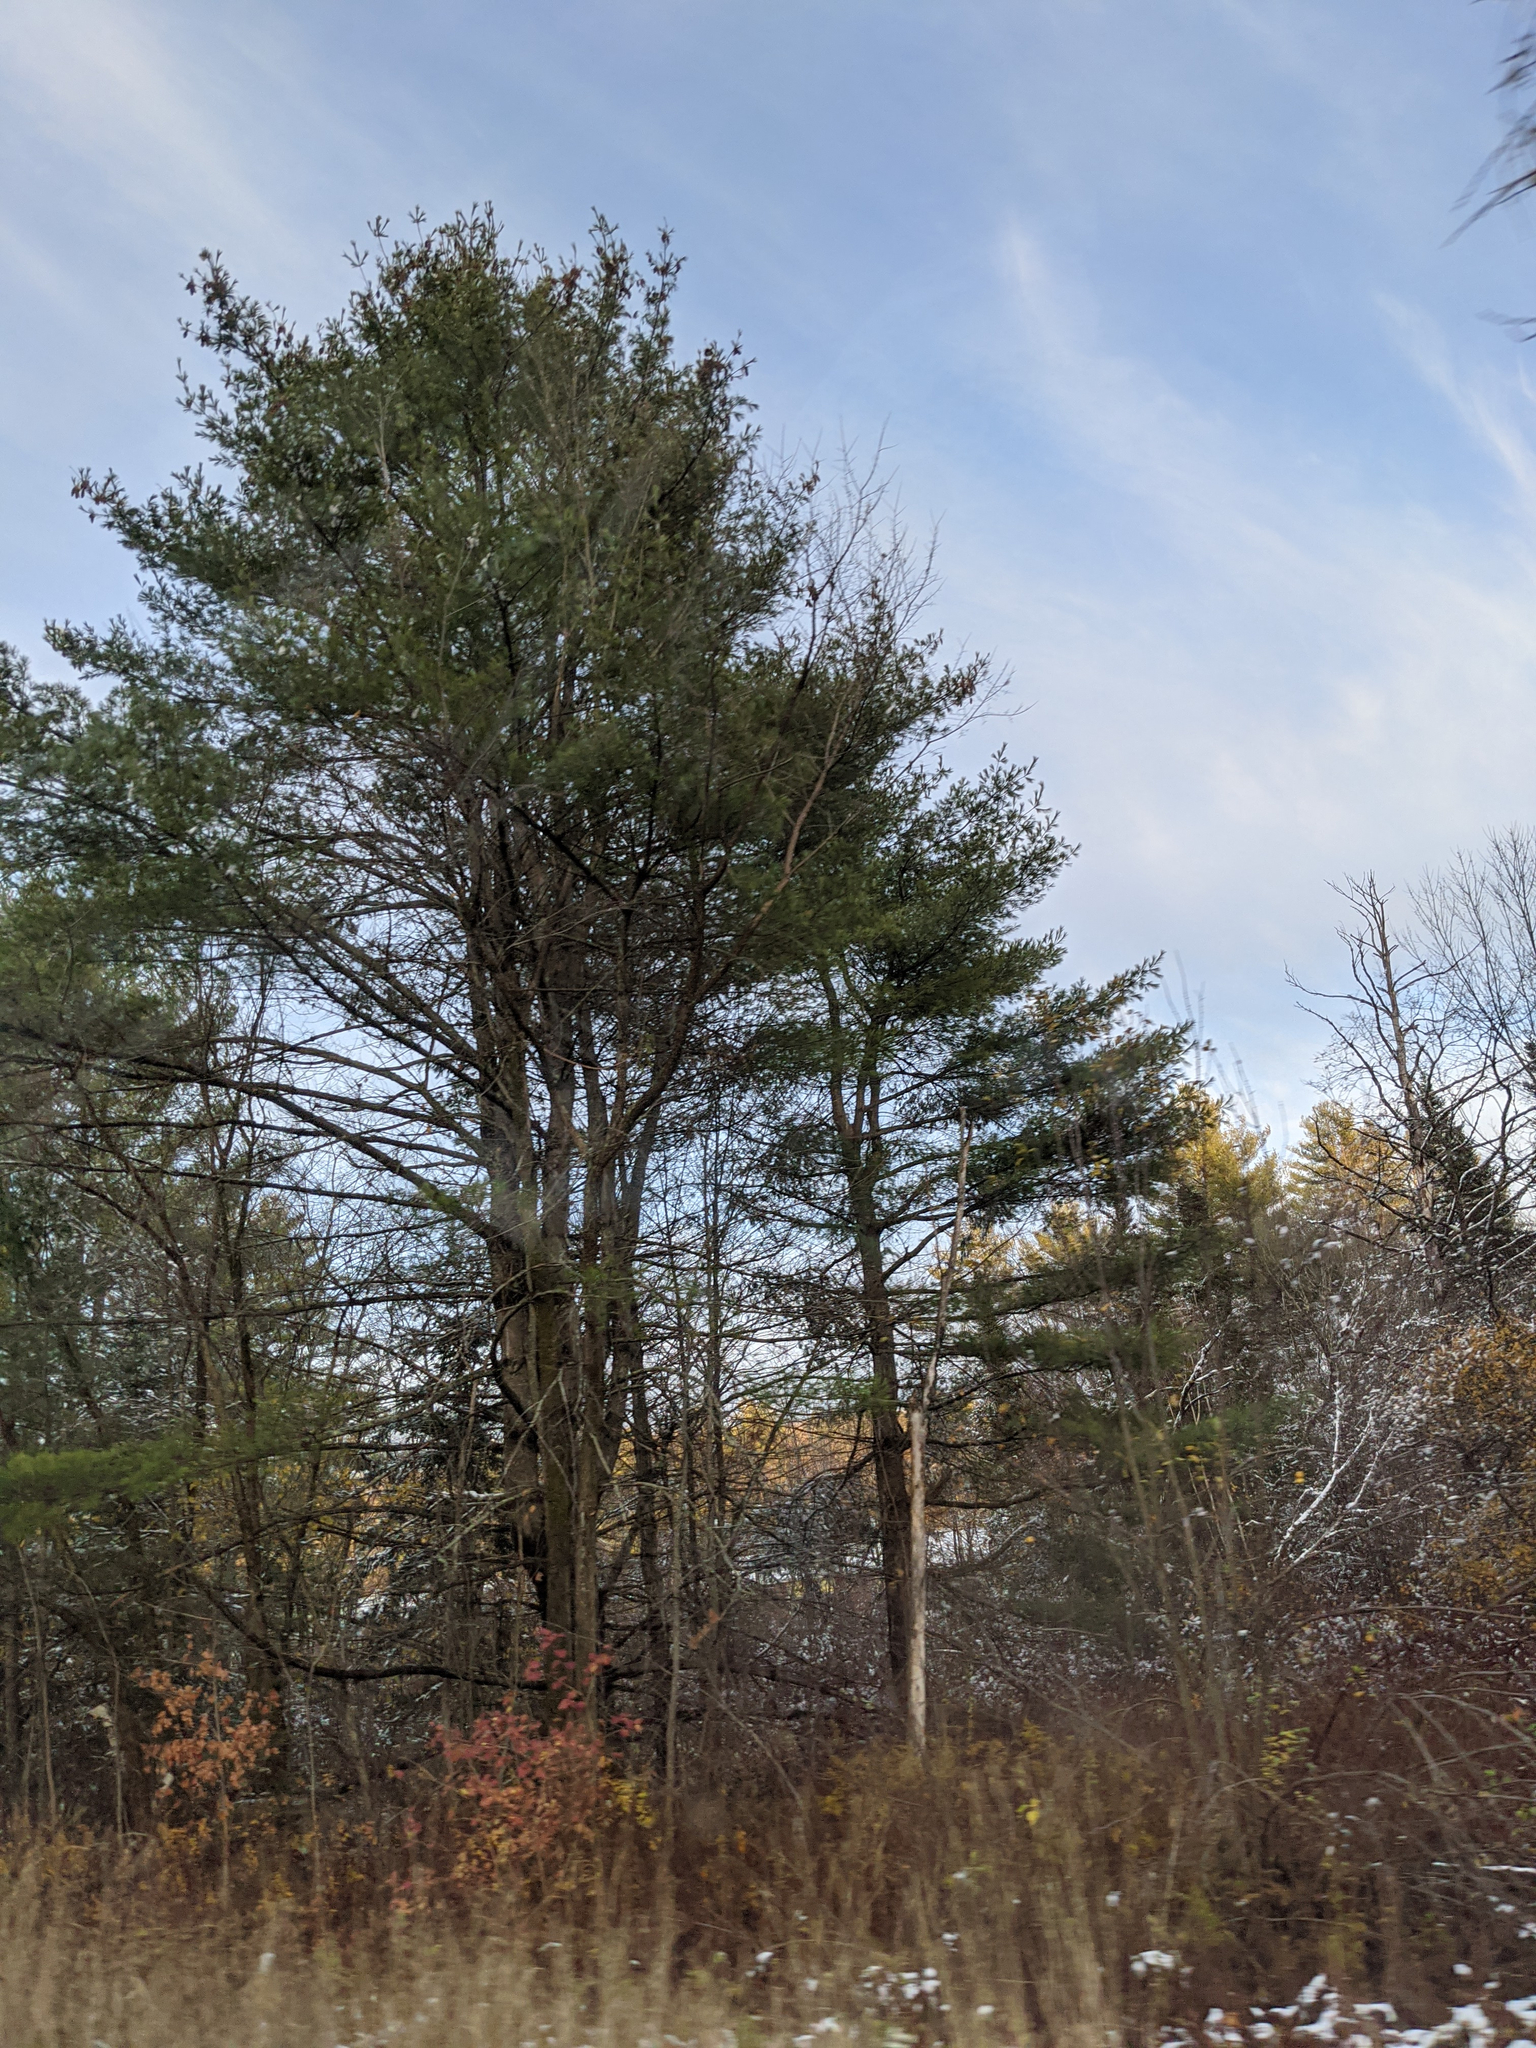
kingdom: Plantae
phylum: Tracheophyta
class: Pinopsida
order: Pinales
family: Pinaceae
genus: Pinus
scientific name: Pinus strobus
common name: Weymouth pine
